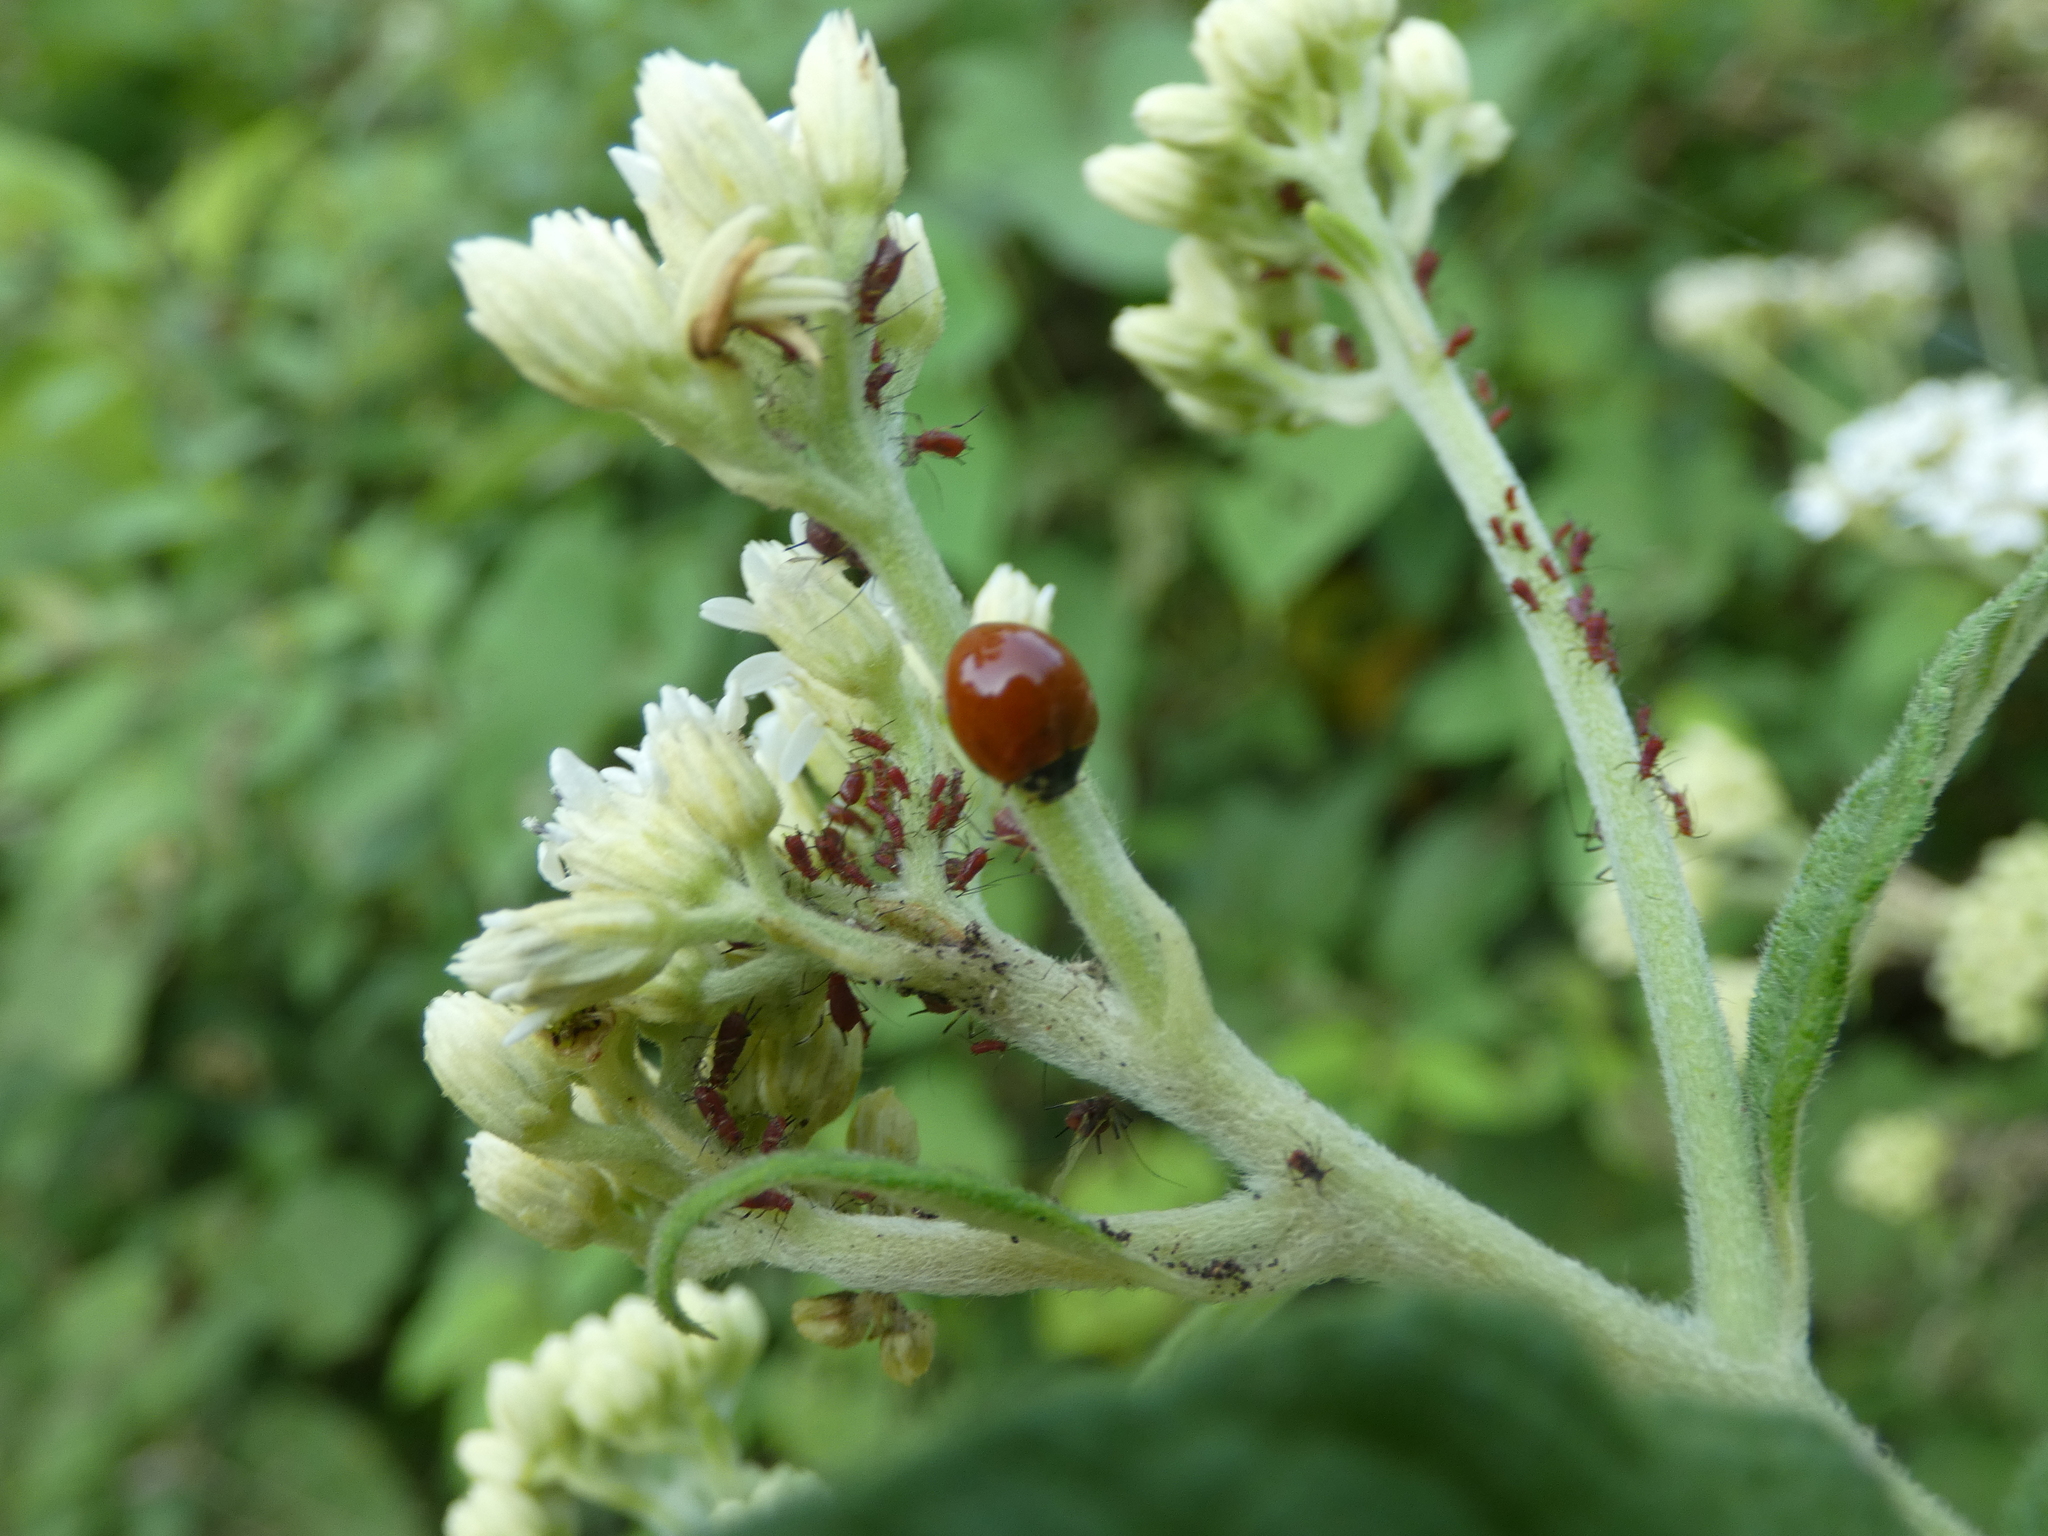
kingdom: Animalia
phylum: Arthropoda
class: Insecta
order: Coleoptera
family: Coccinellidae
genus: Cycloneda
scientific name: Cycloneda sanguinea
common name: Ladybird beetle
